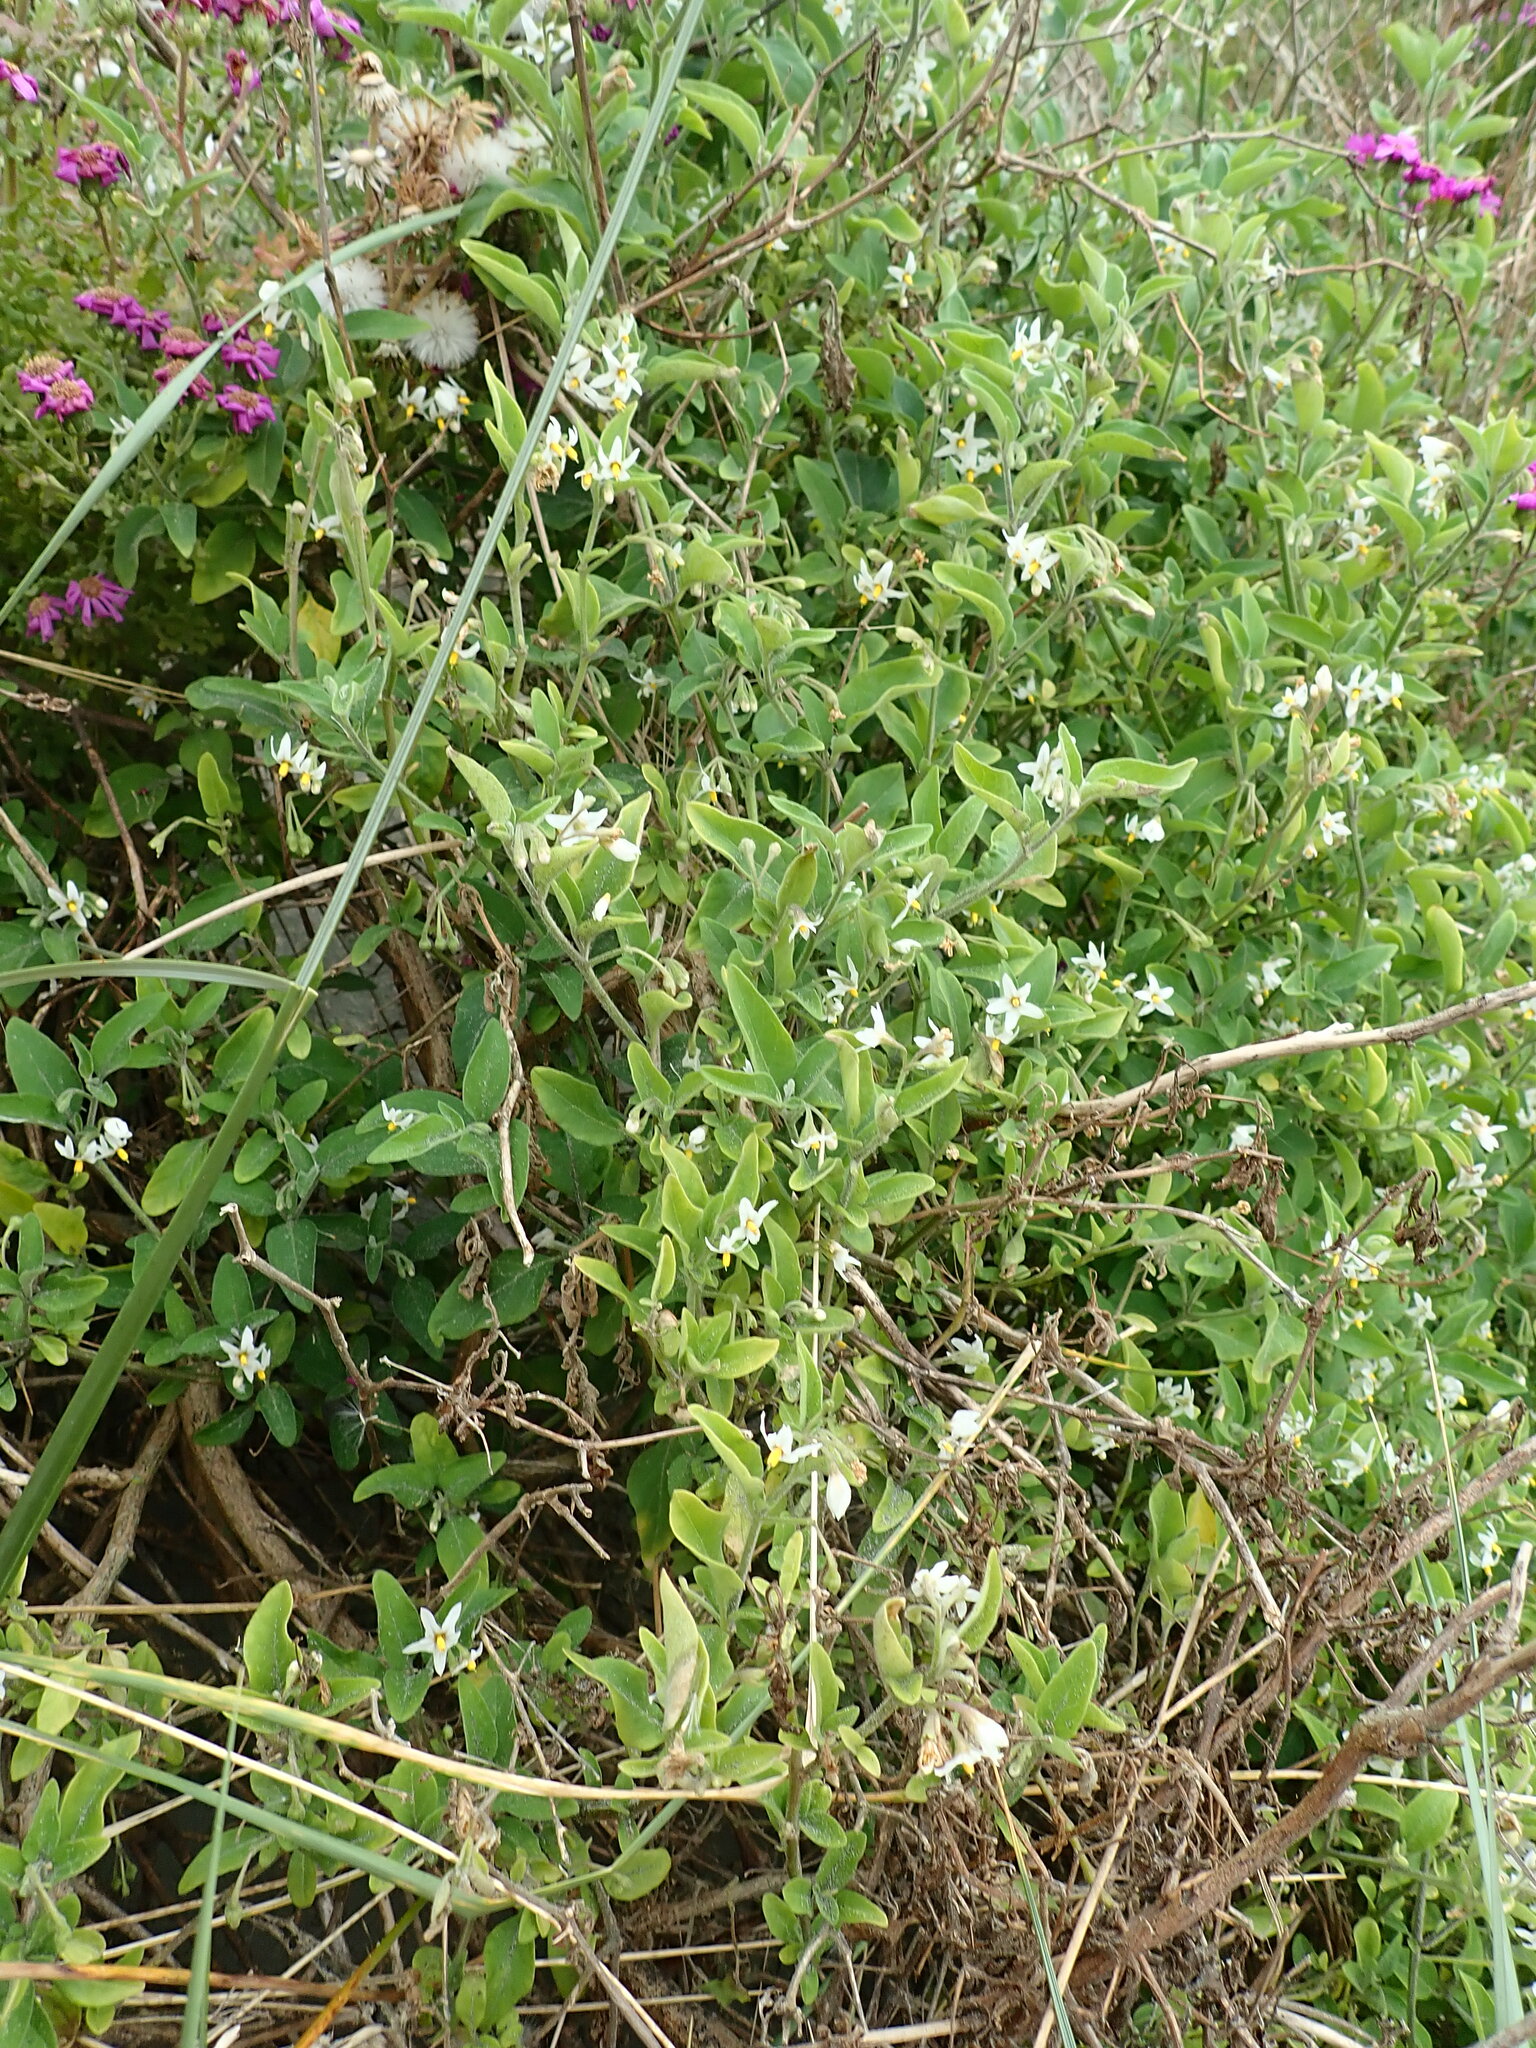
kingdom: Plantae
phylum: Tracheophyta
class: Magnoliopsida
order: Solanales
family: Solanaceae
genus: Solanum
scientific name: Solanum chenopodioides
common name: Tall nightshade
